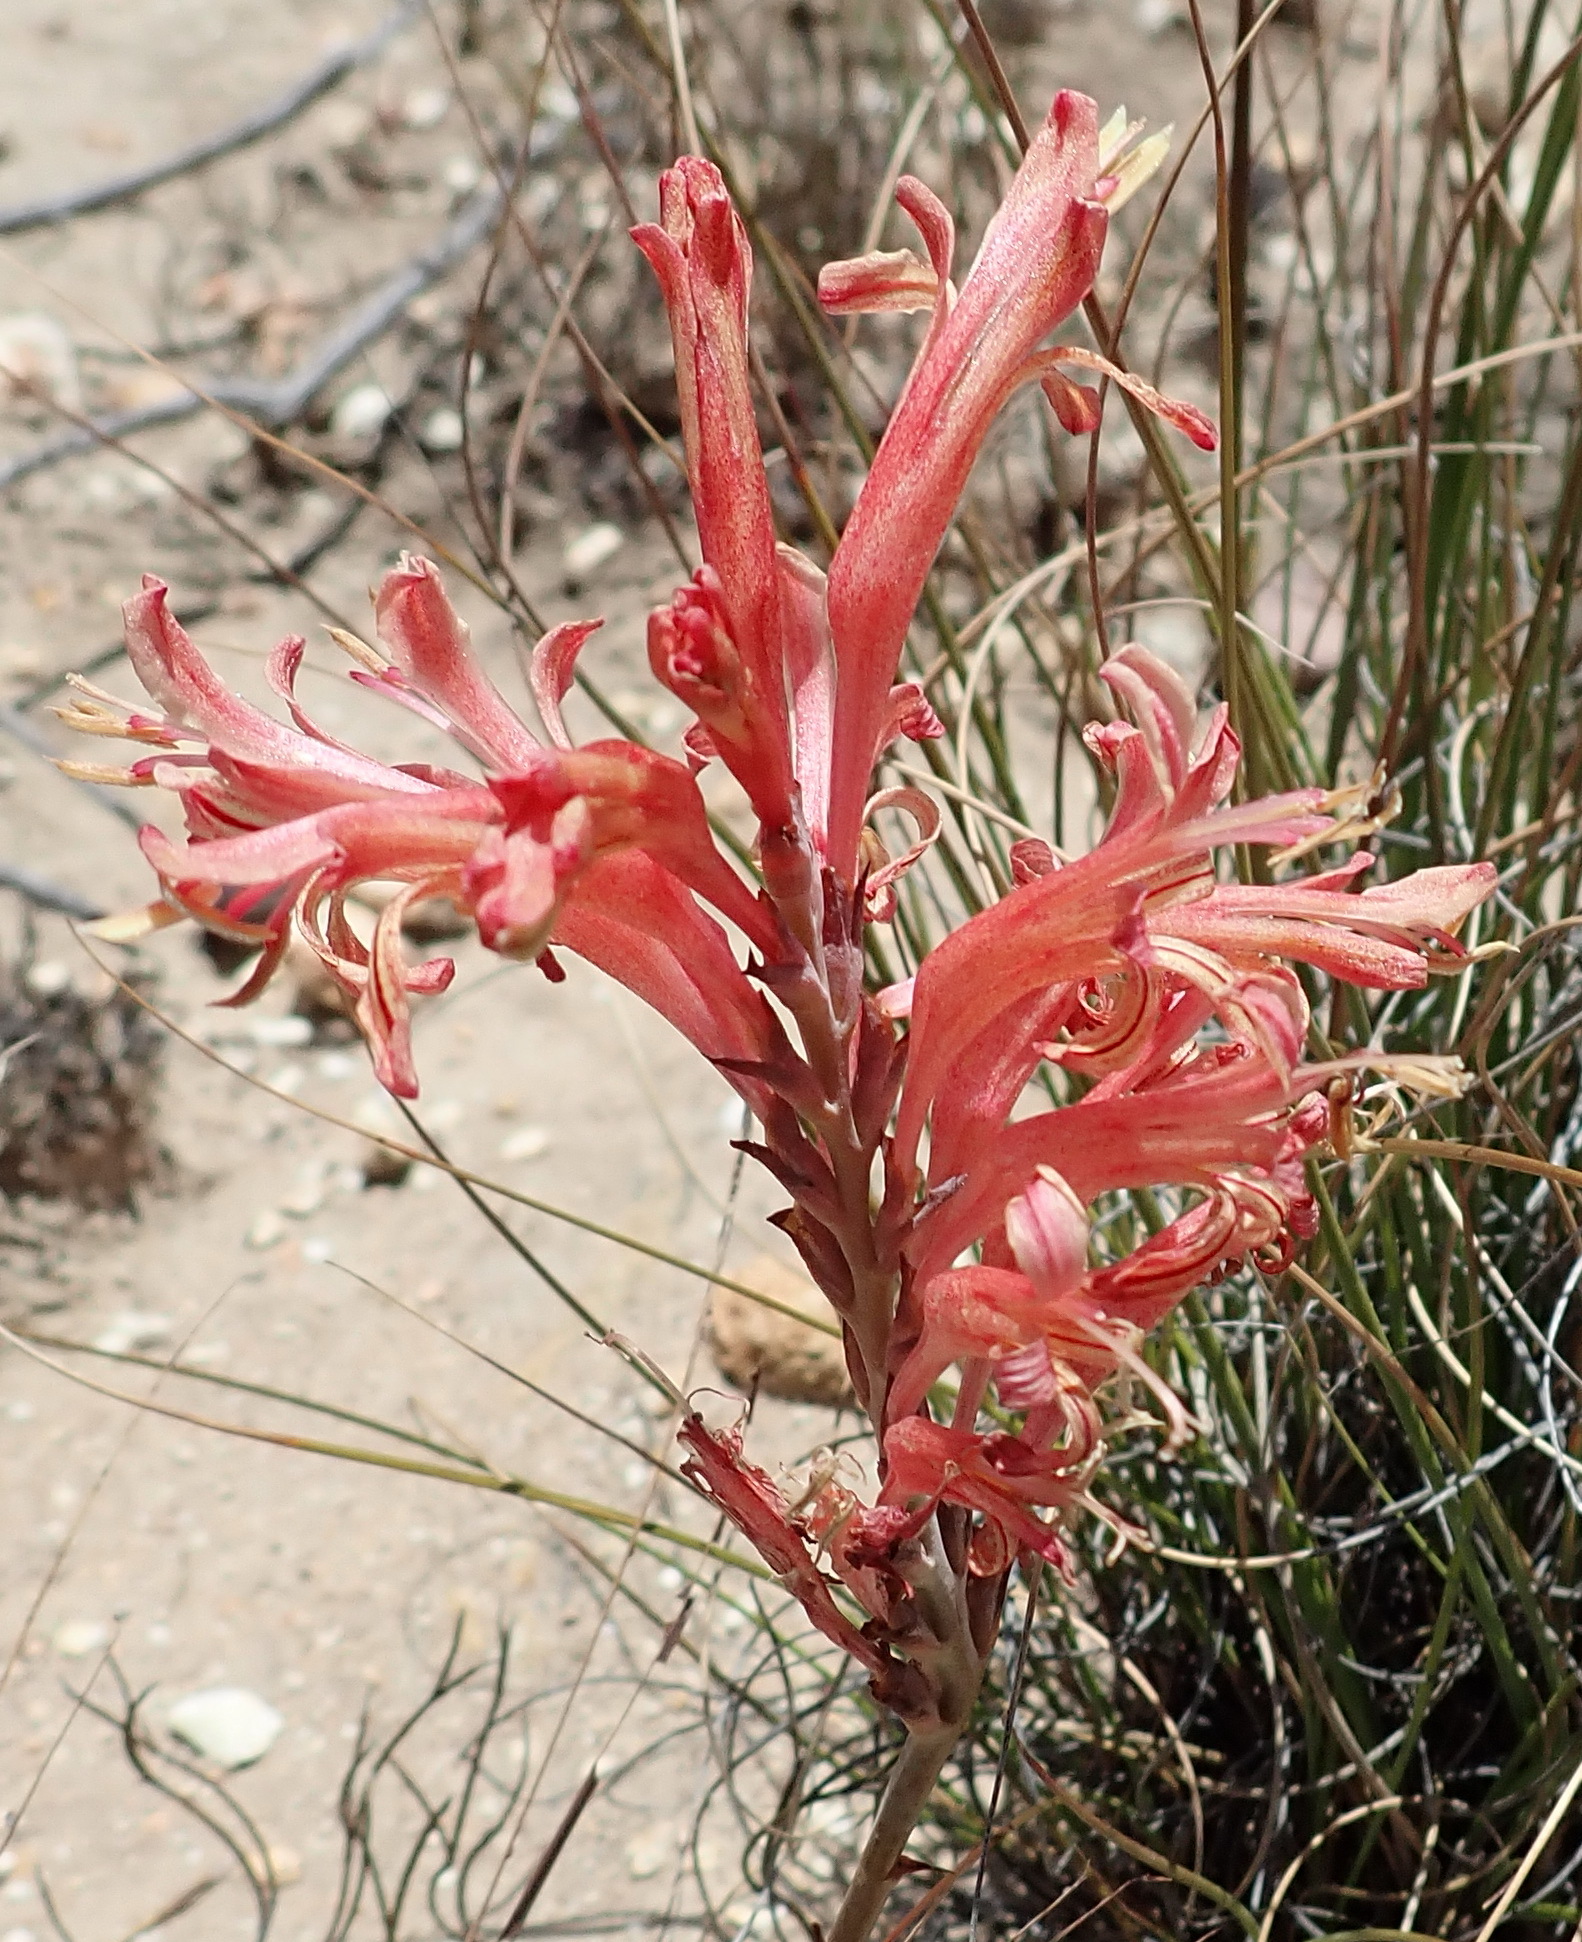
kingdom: Plantae
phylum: Tracheophyta
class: Liliopsida
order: Asparagales
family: Iridaceae
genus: Tritoniopsis
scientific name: Tritoniopsis antholyza
